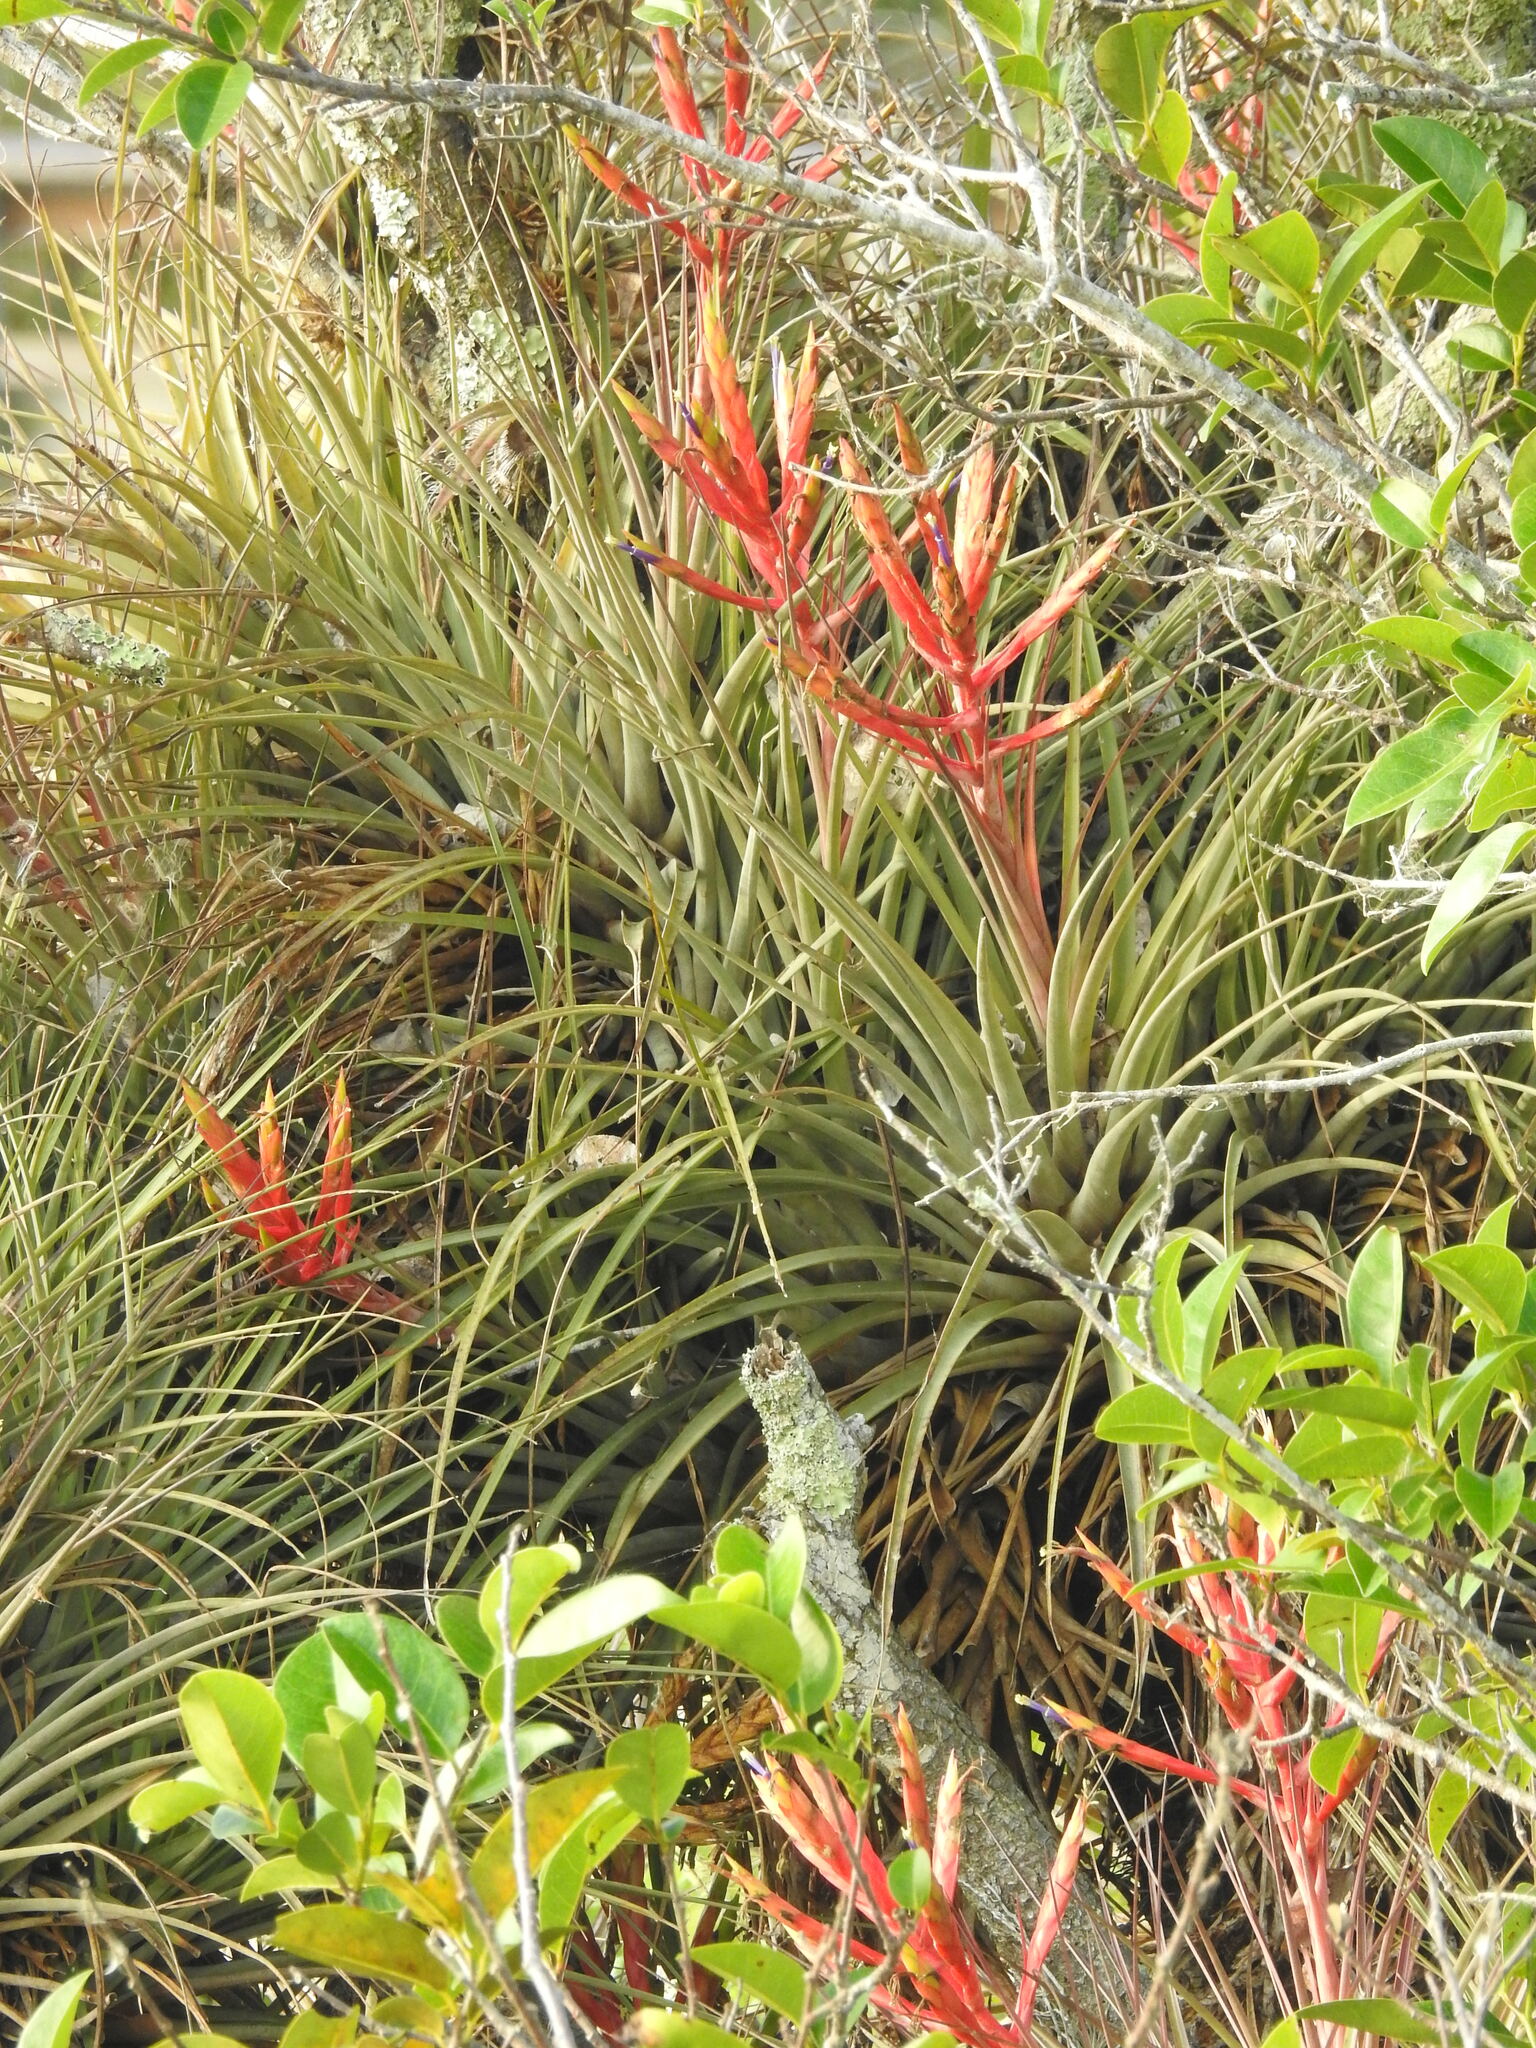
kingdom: Plantae
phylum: Tracheophyta
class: Liliopsida
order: Poales
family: Bromeliaceae
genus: Tillandsia
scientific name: Tillandsia fasciculata
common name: Giant airplant
